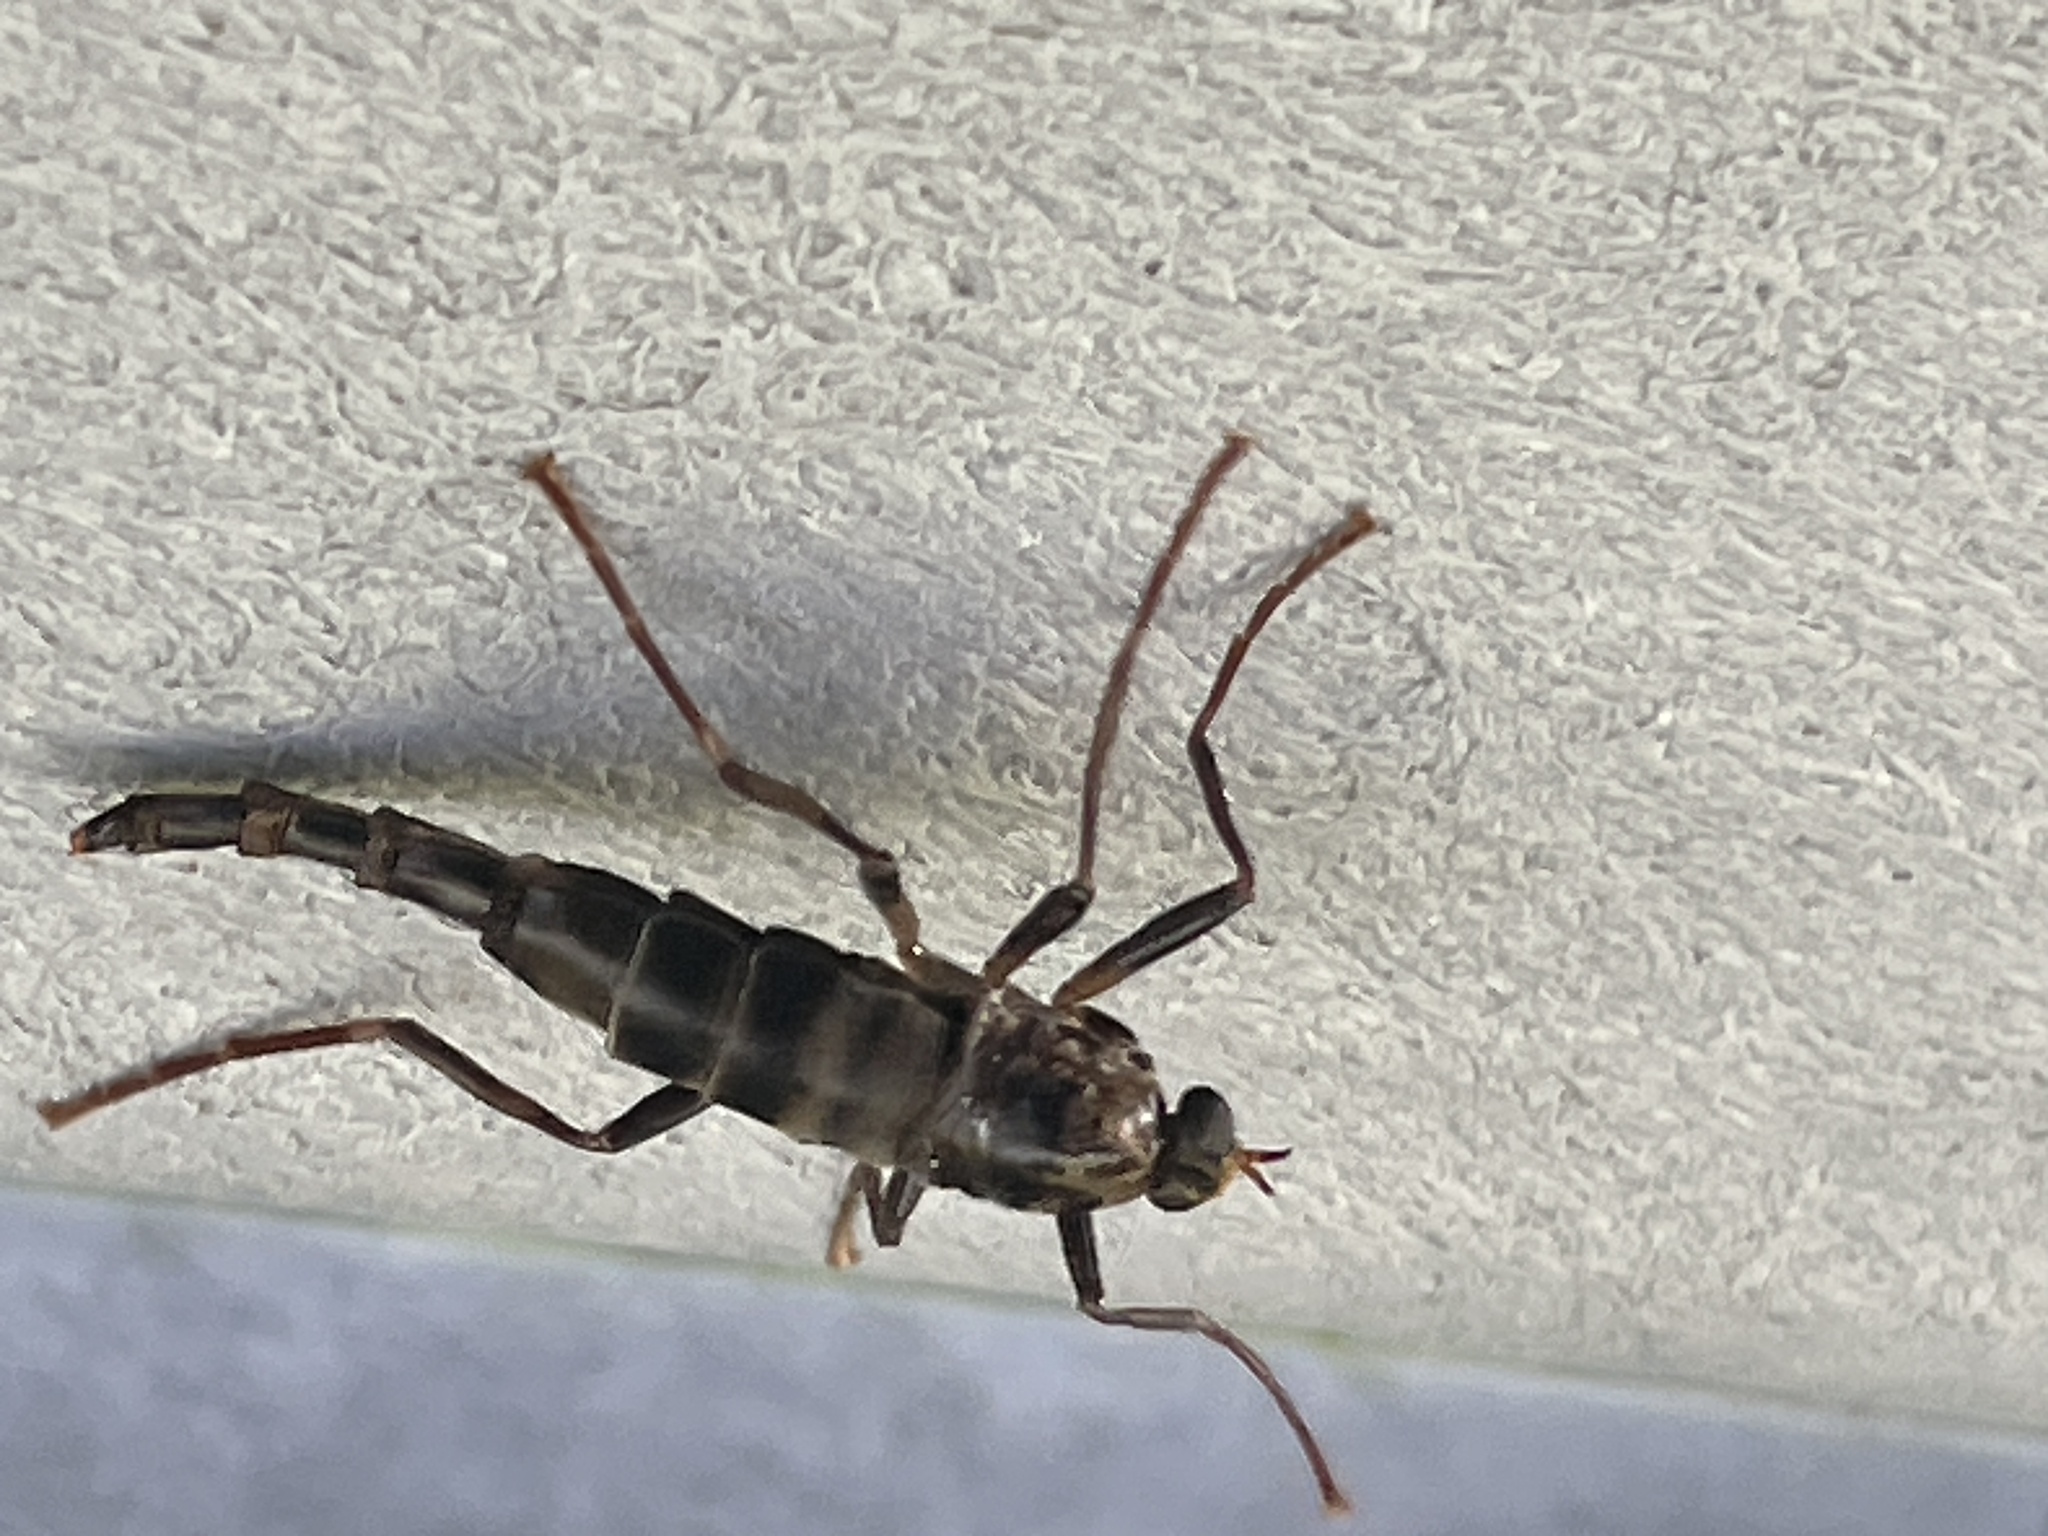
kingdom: Animalia
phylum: Arthropoda
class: Insecta
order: Diptera
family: Stratiomyidae
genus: Boreoides
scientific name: Boreoides subulatus
